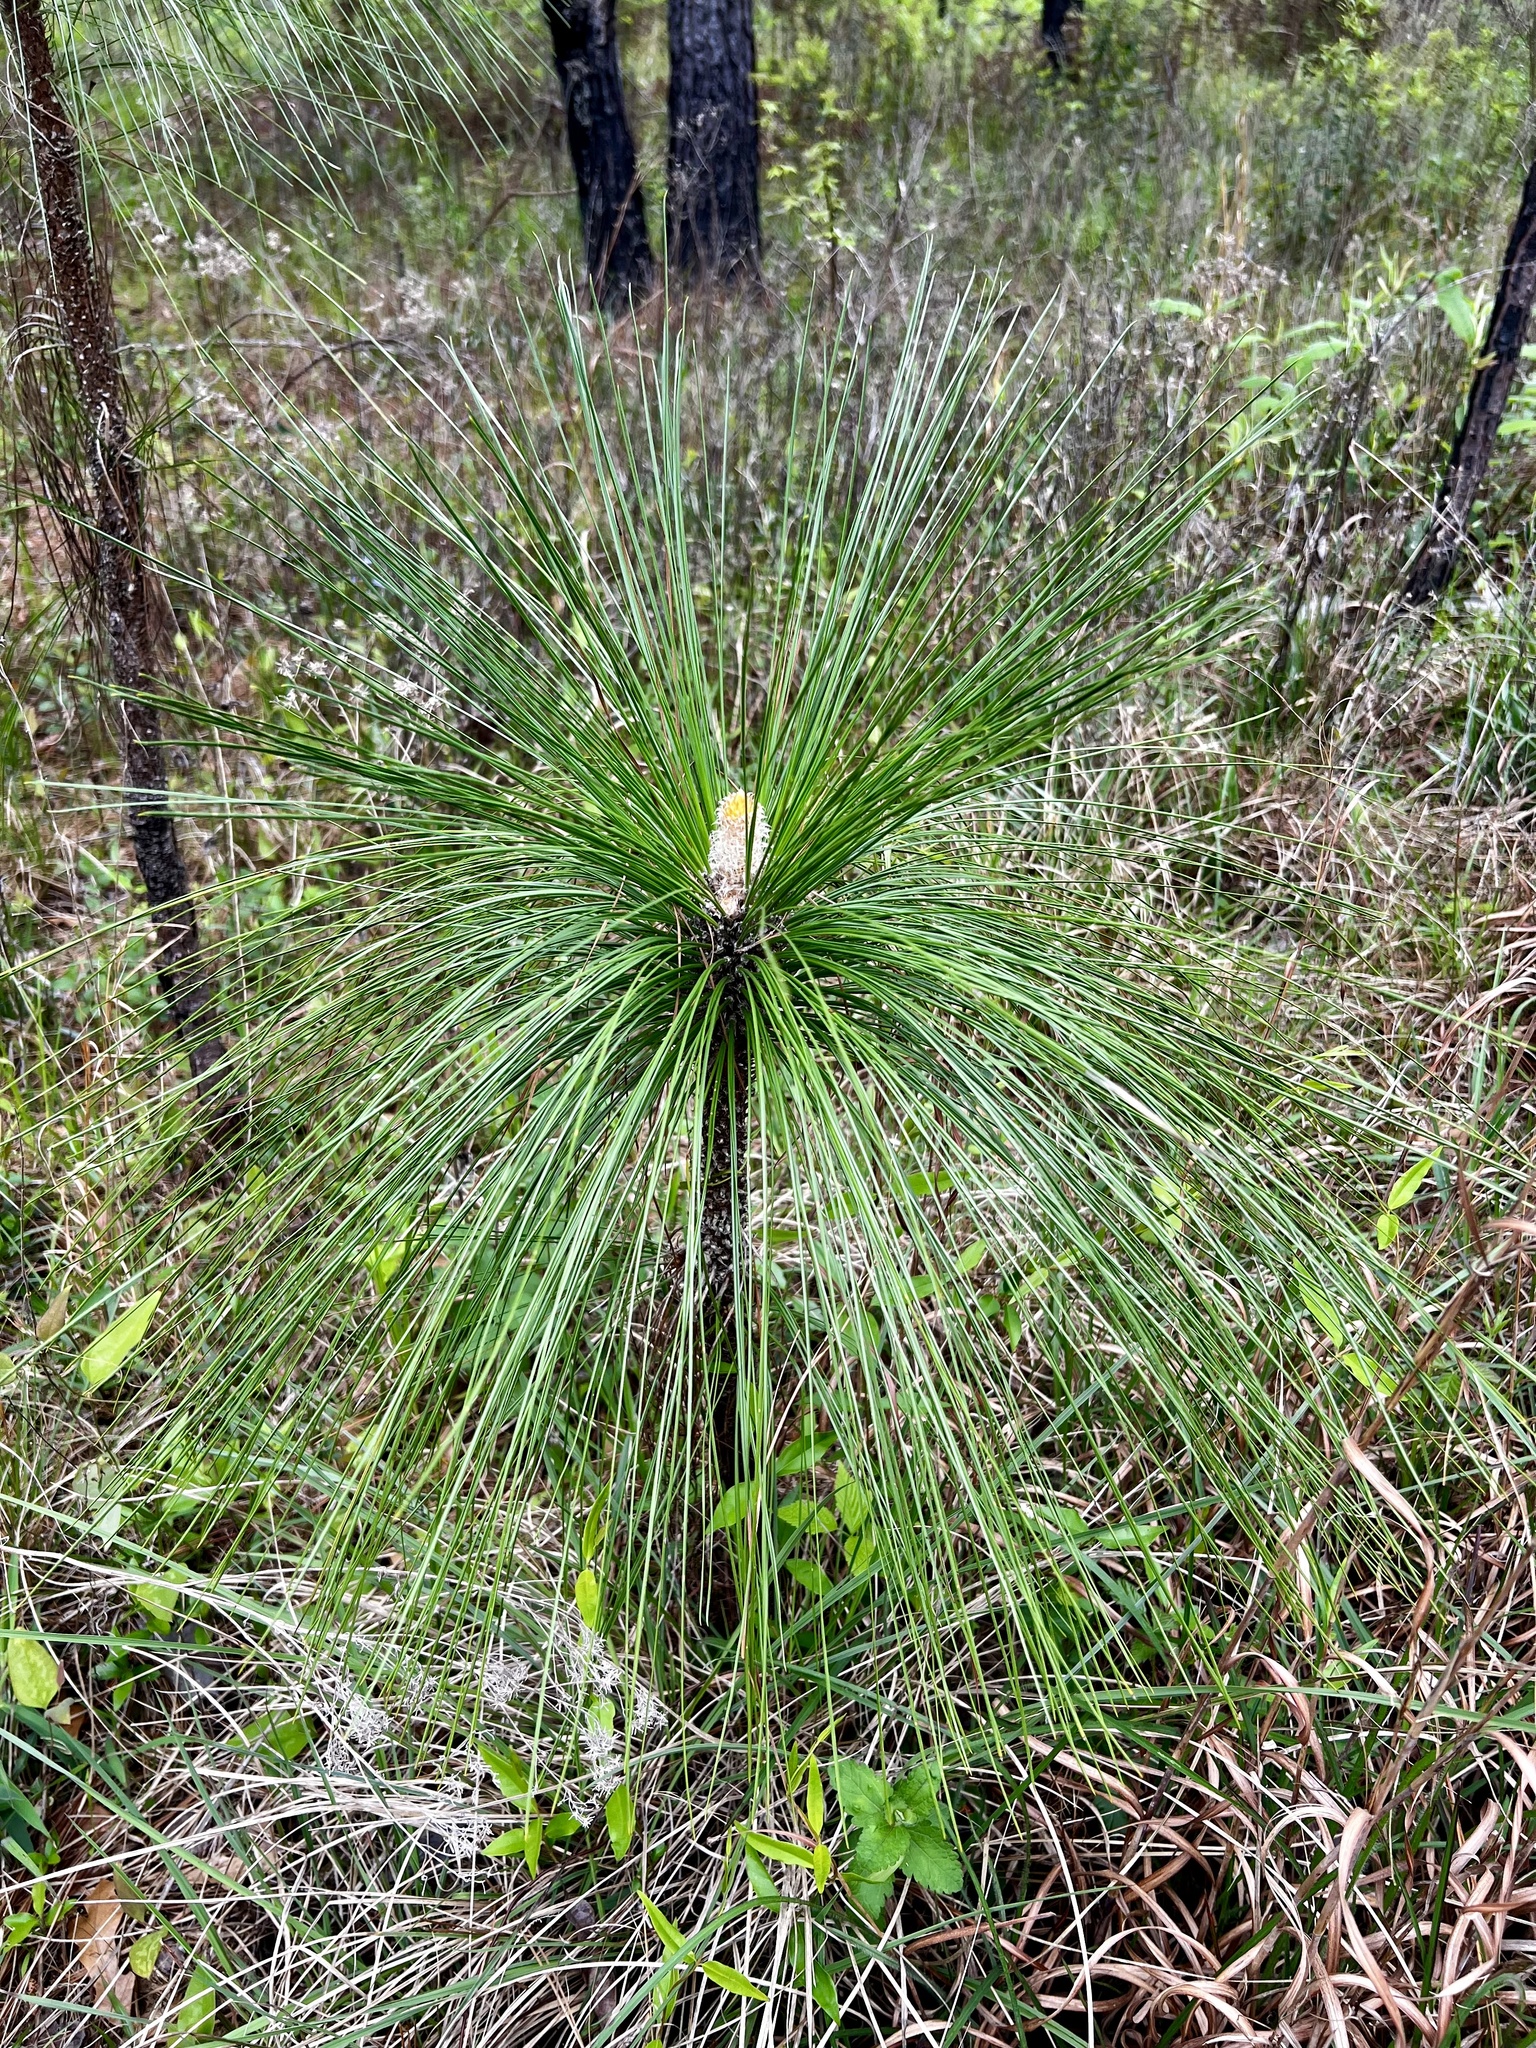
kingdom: Plantae
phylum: Tracheophyta
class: Pinopsida
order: Pinales
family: Pinaceae
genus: Pinus
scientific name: Pinus palustris
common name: Longleaf pine
